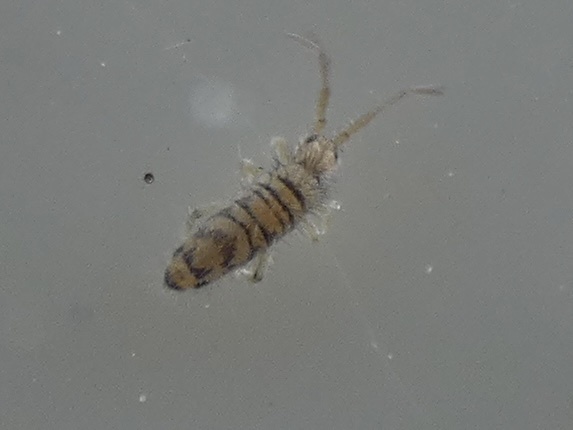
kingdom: Animalia
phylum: Arthropoda
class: Collembola
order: Entomobryomorpha
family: Entomobryidae
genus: Entomobrya
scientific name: Entomobrya multifasciata
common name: Springtail
